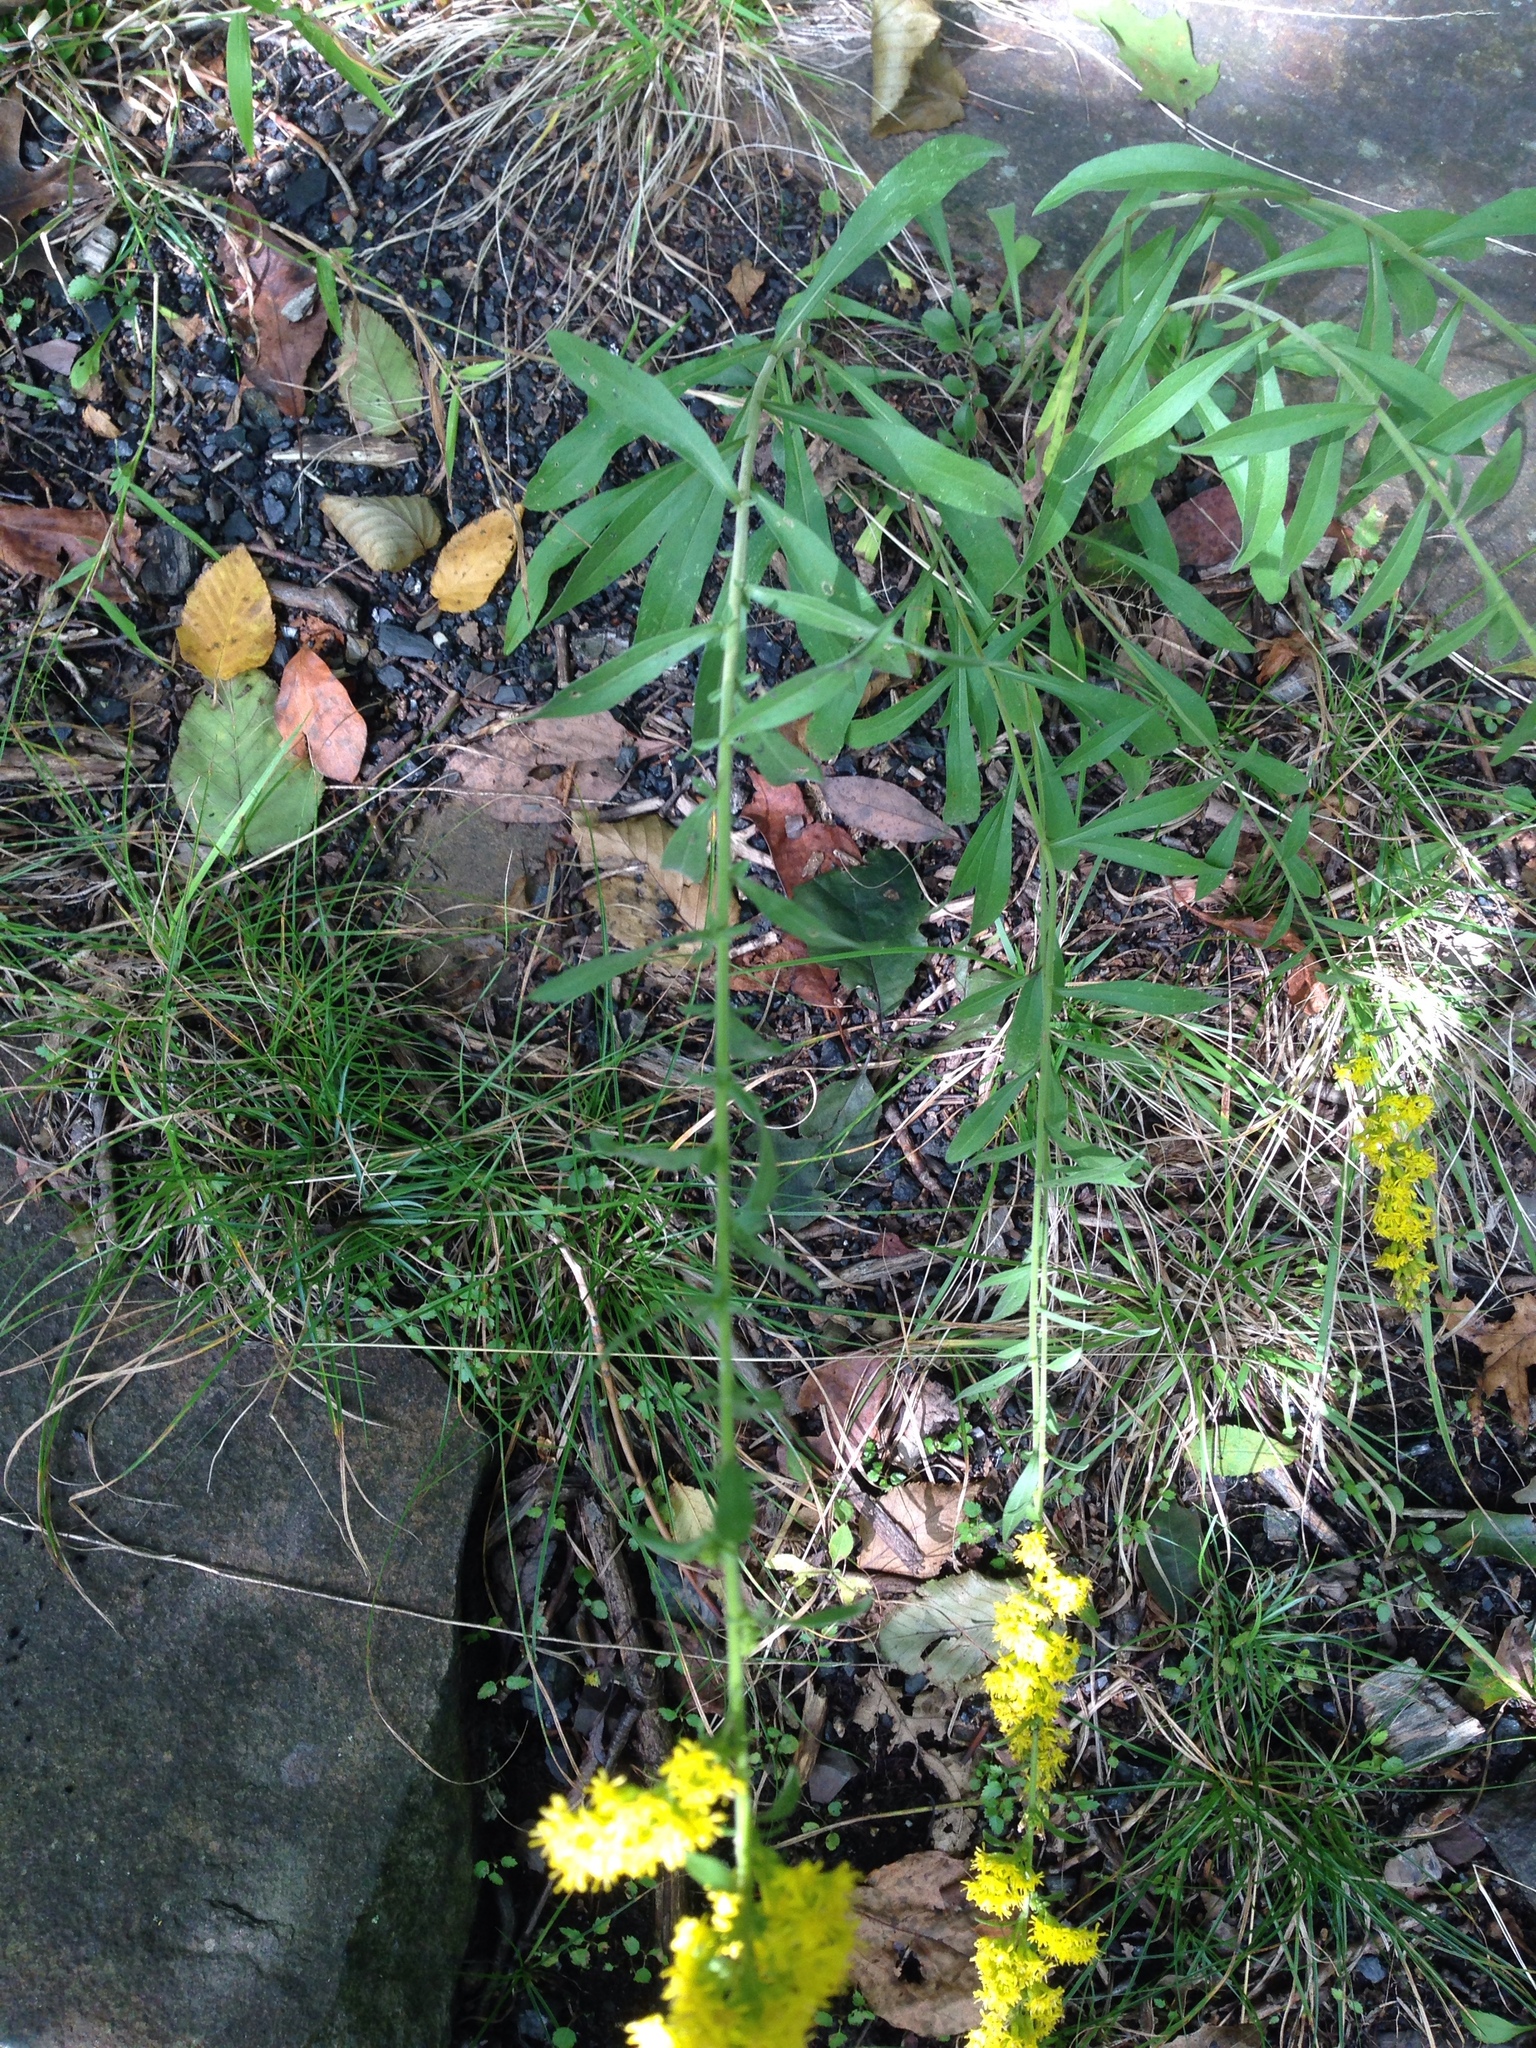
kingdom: Plantae
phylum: Tracheophyta
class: Magnoliopsida
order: Asterales
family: Asteraceae
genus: Solidago
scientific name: Solidago nemoralis
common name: Grey goldenrod
